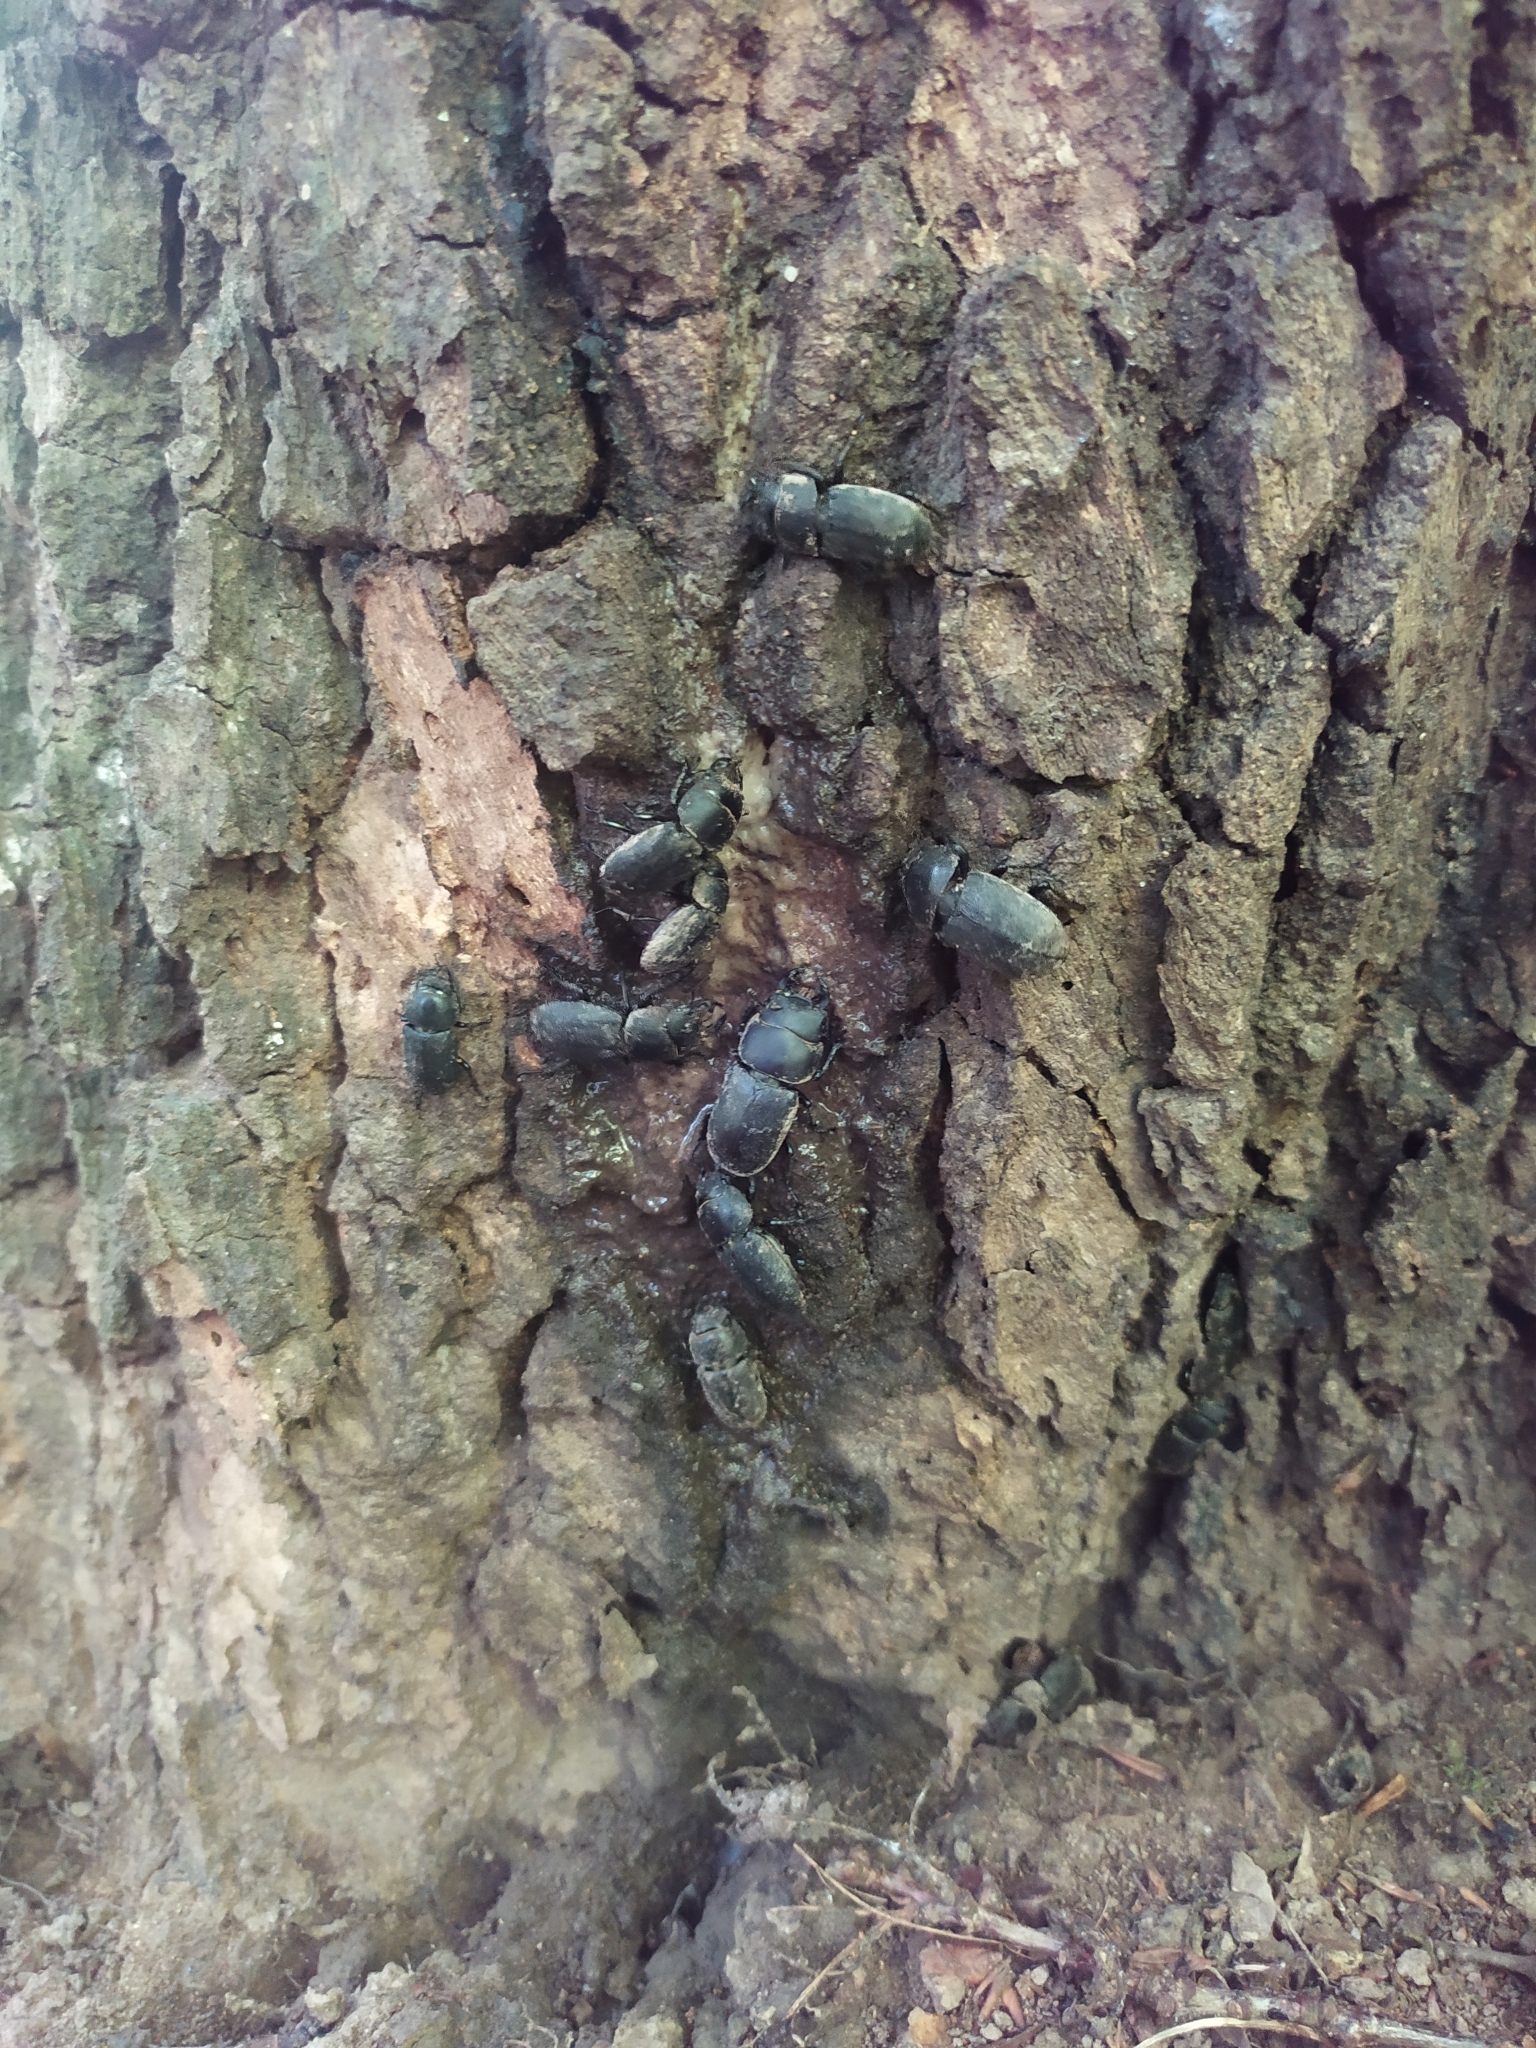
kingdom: Animalia
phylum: Arthropoda
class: Insecta
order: Coleoptera
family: Lucanidae
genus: Dorcus
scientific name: Dorcus parallelipipedus
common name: Lesser stag beetle
